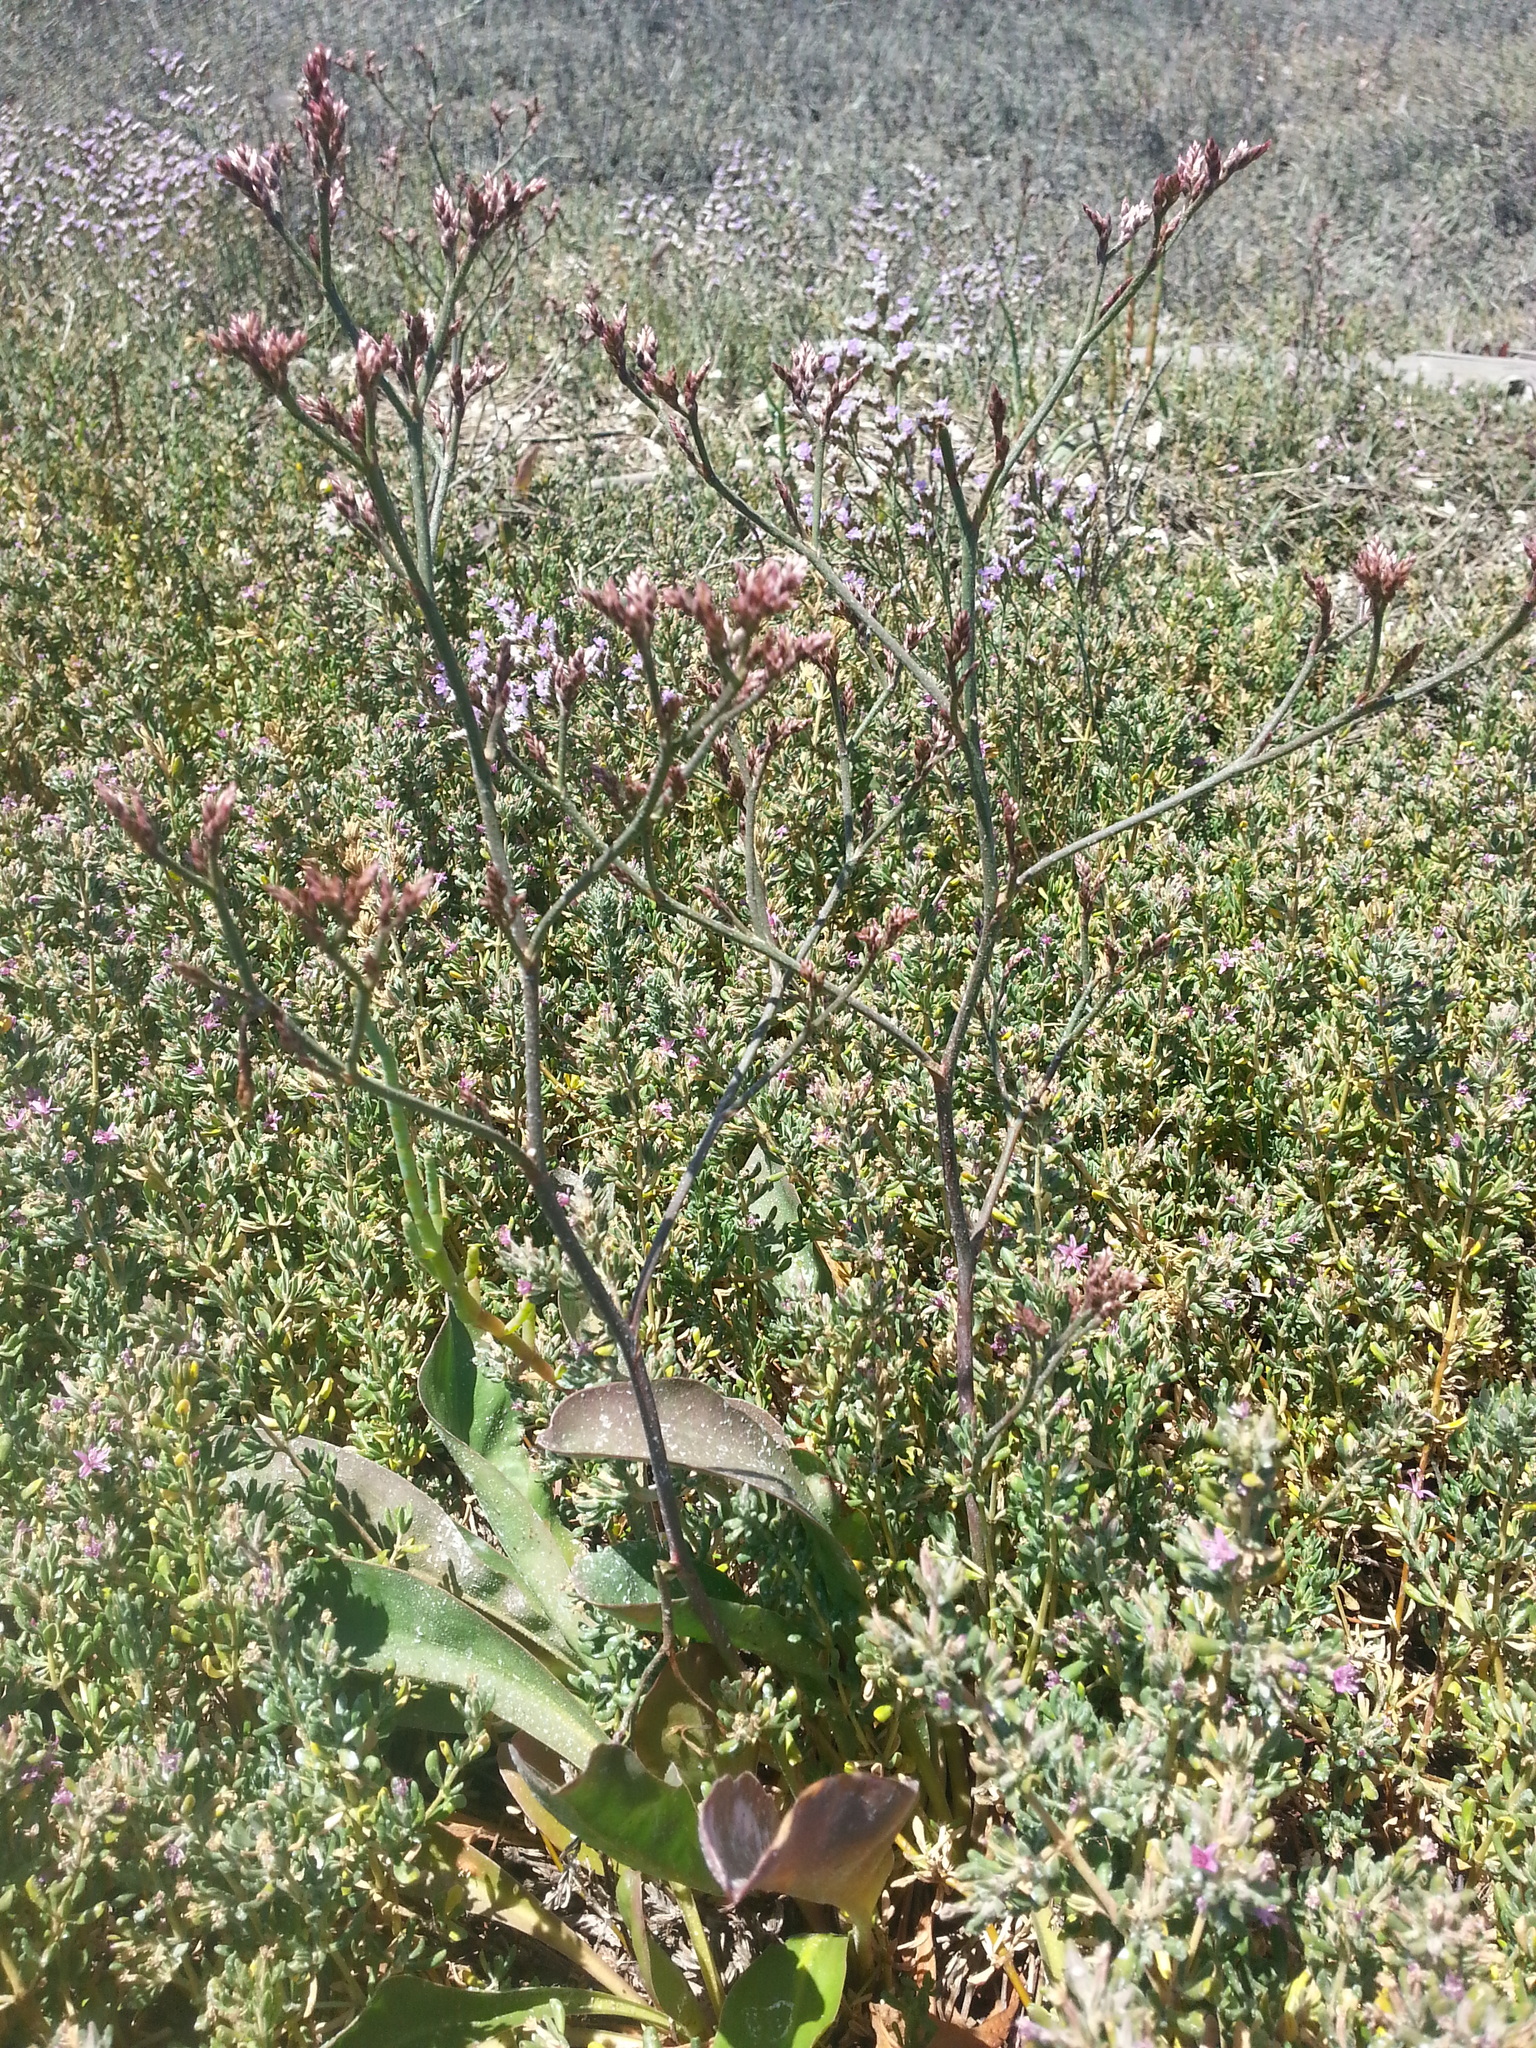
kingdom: Plantae
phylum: Tracheophyta
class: Magnoliopsida
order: Caryophyllales
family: Plumbaginaceae
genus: Limonium
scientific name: Limonium californicum
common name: Marsh-rosemary
